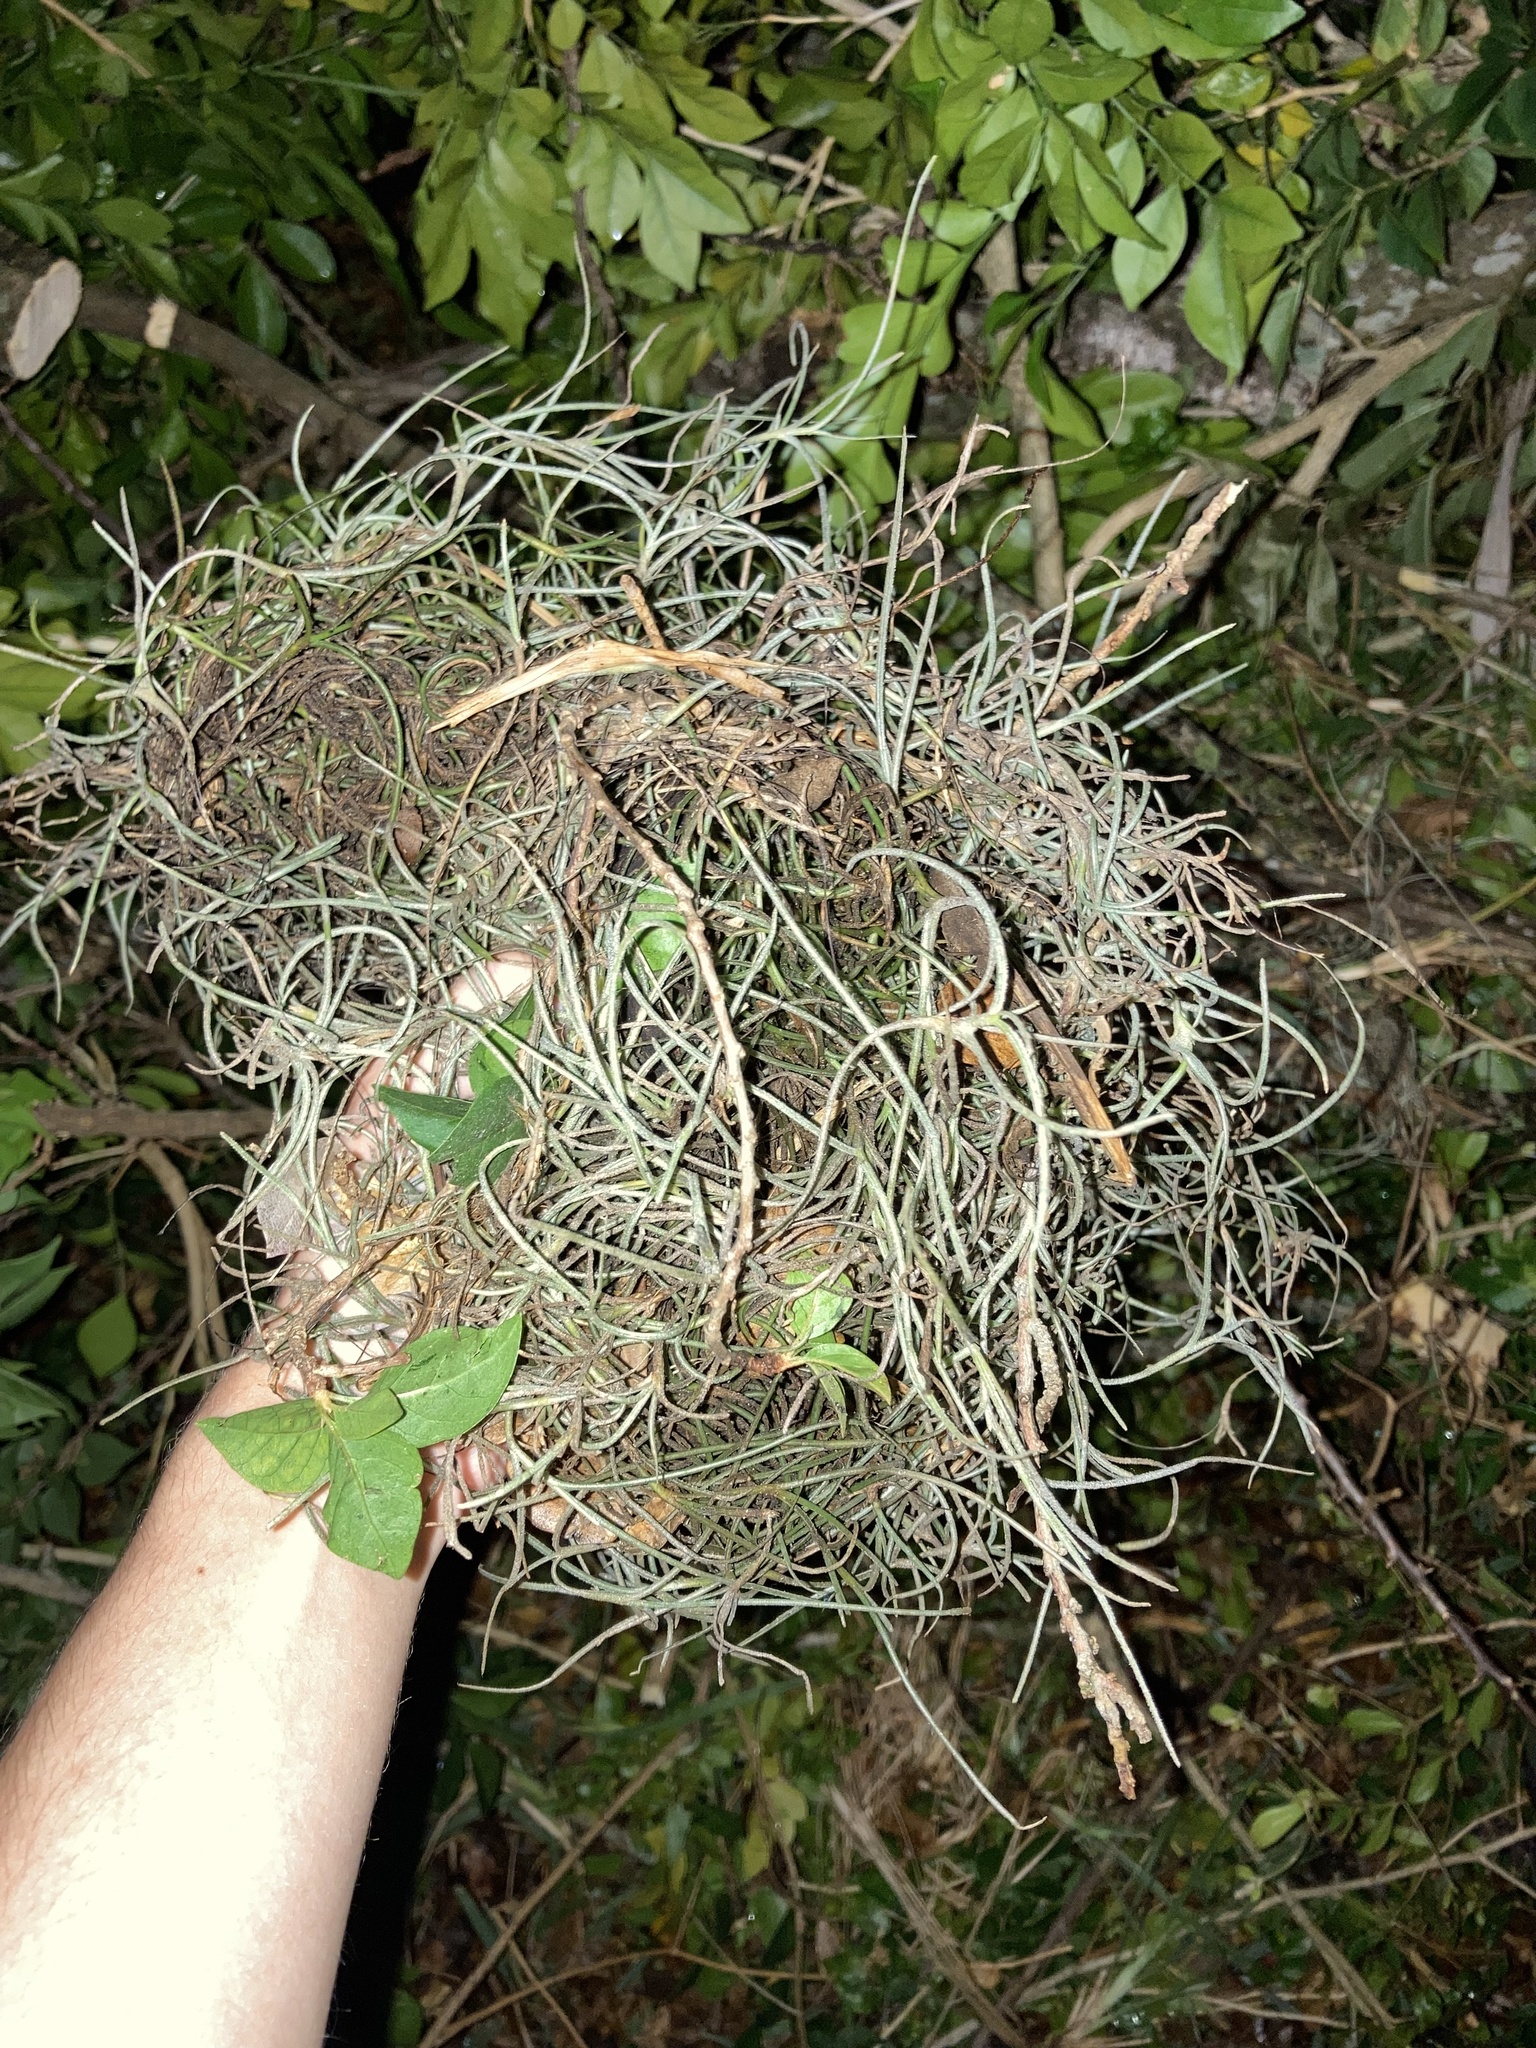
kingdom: Plantae
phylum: Tracheophyta
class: Liliopsida
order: Poales
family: Bromeliaceae
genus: Tillandsia
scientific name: Tillandsia usneoides
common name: Spanish moss
